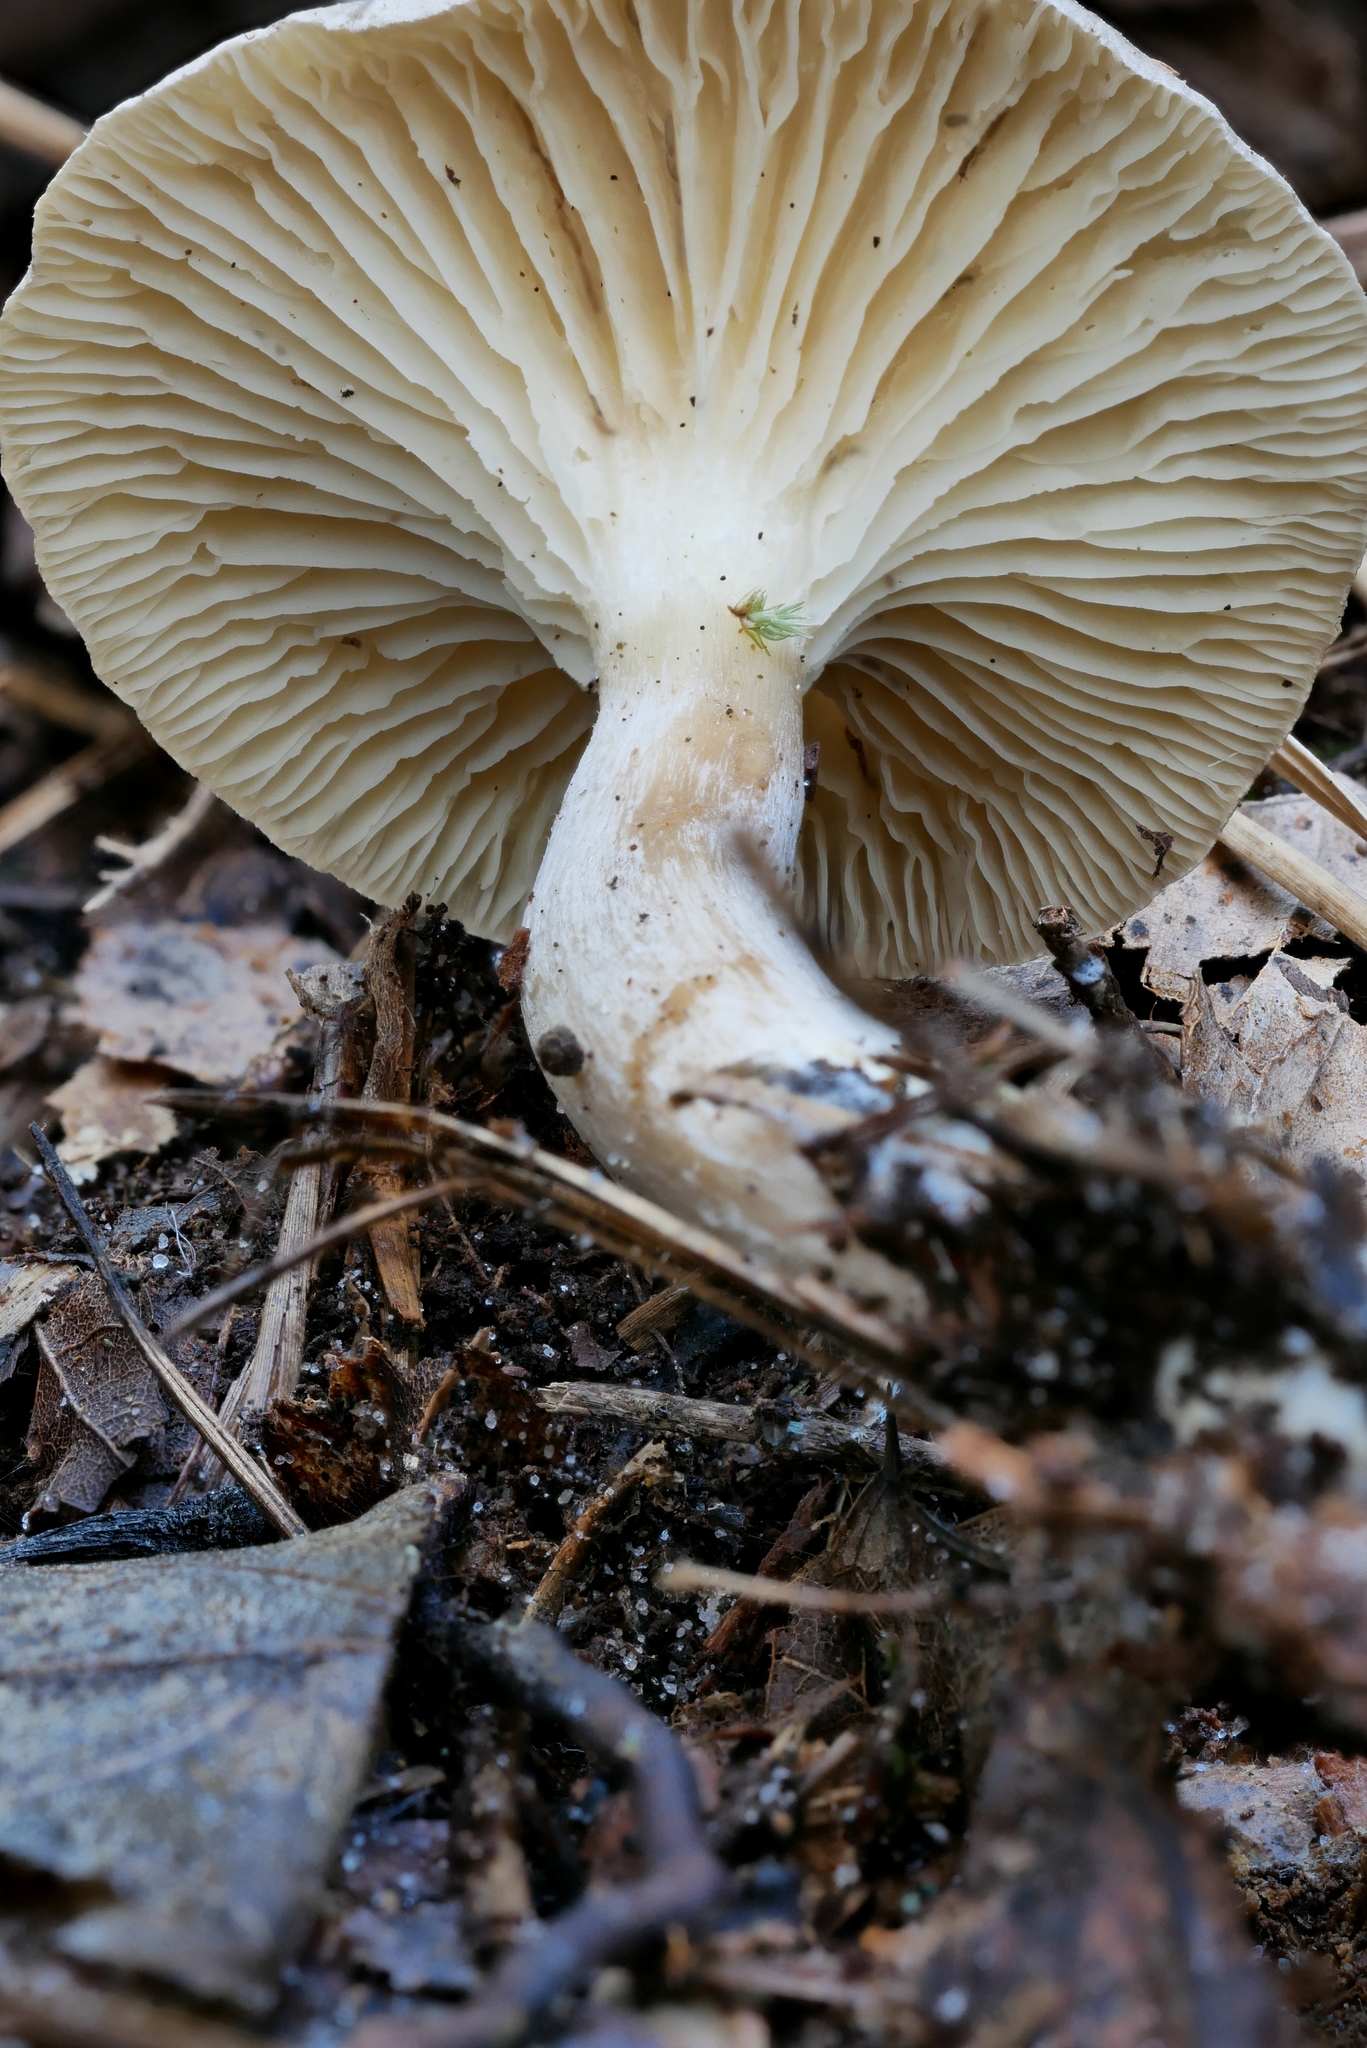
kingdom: Fungi
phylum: Basidiomycota
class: Agaricomycetes
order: Agaricales
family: Hygrophoraceae
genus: Ampulloclitocybe
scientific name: Ampulloclitocybe clavipes
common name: Club foot
